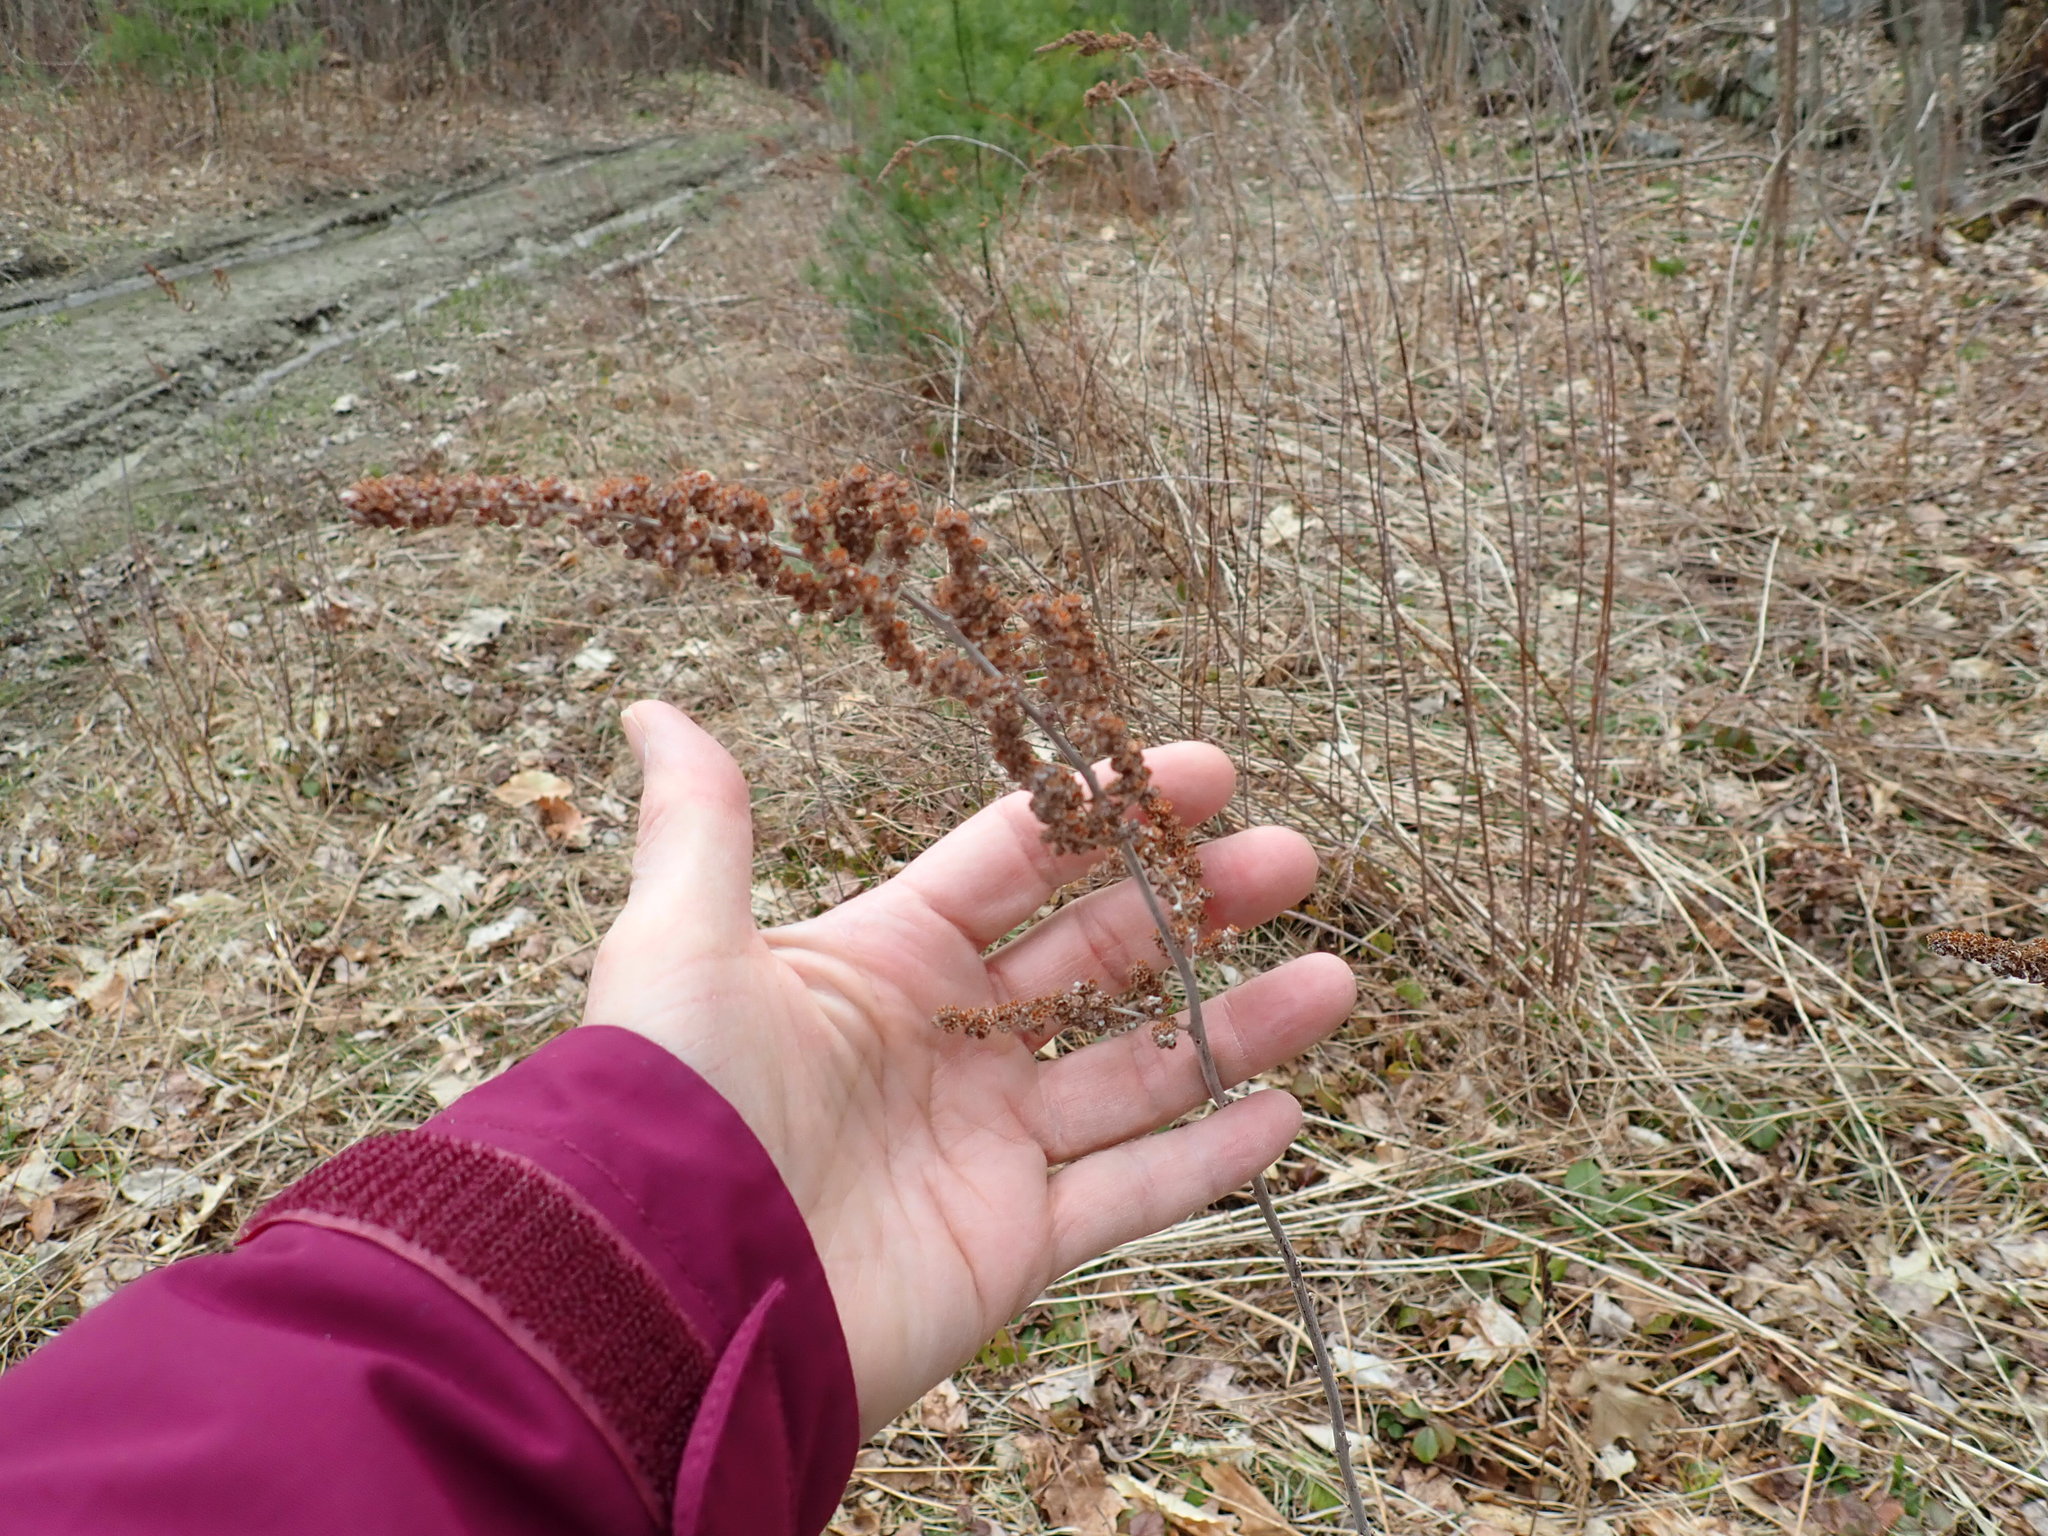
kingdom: Plantae
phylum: Tracheophyta
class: Magnoliopsida
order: Rosales
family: Rosaceae
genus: Spiraea
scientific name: Spiraea tomentosa
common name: Hardhack
